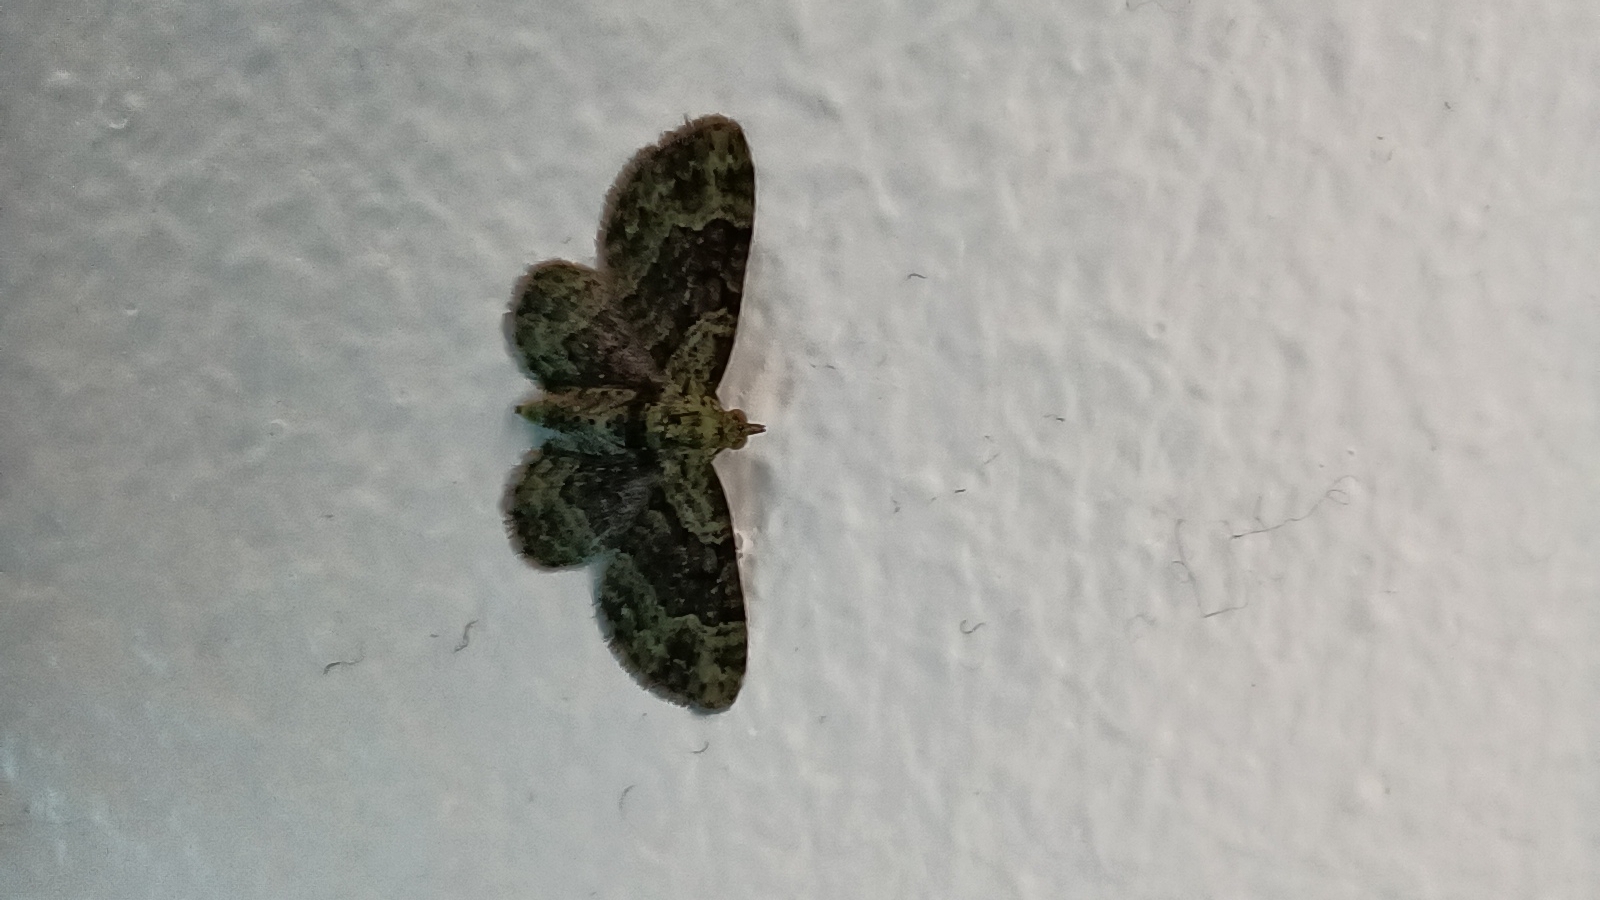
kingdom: Animalia
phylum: Arthropoda
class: Insecta
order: Lepidoptera
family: Geometridae
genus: Pasiphila
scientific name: Pasiphila rectangulata
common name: Green pug
